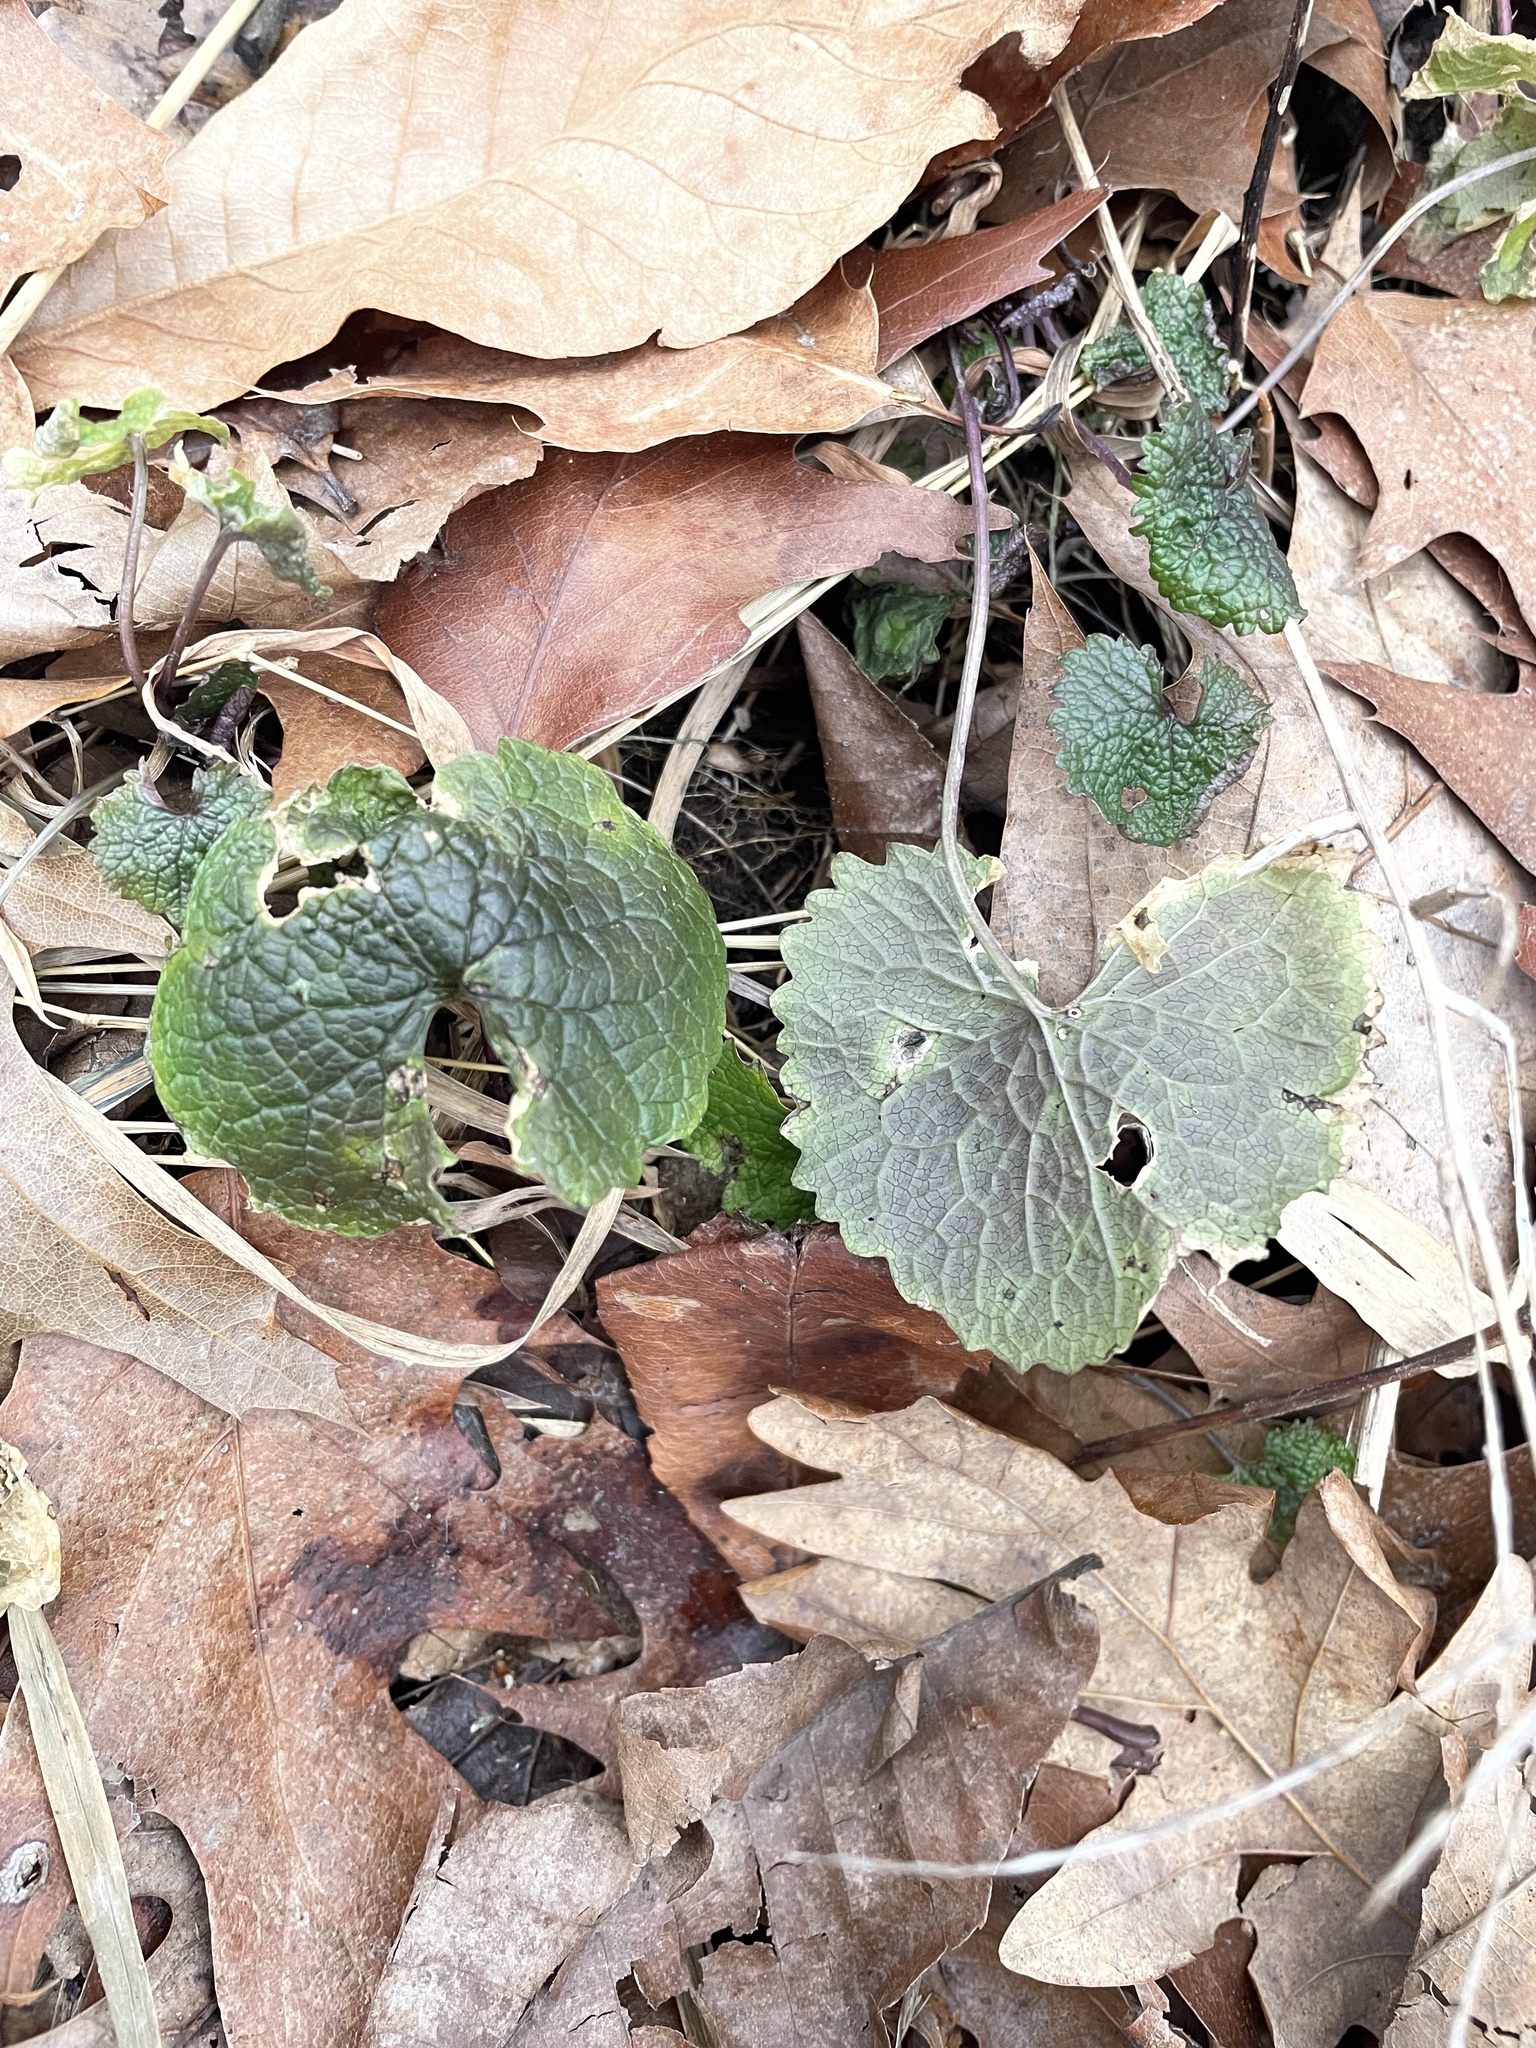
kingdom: Plantae
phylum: Tracheophyta
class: Magnoliopsida
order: Brassicales
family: Brassicaceae
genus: Alliaria
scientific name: Alliaria petiolata
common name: Garlic mustard
